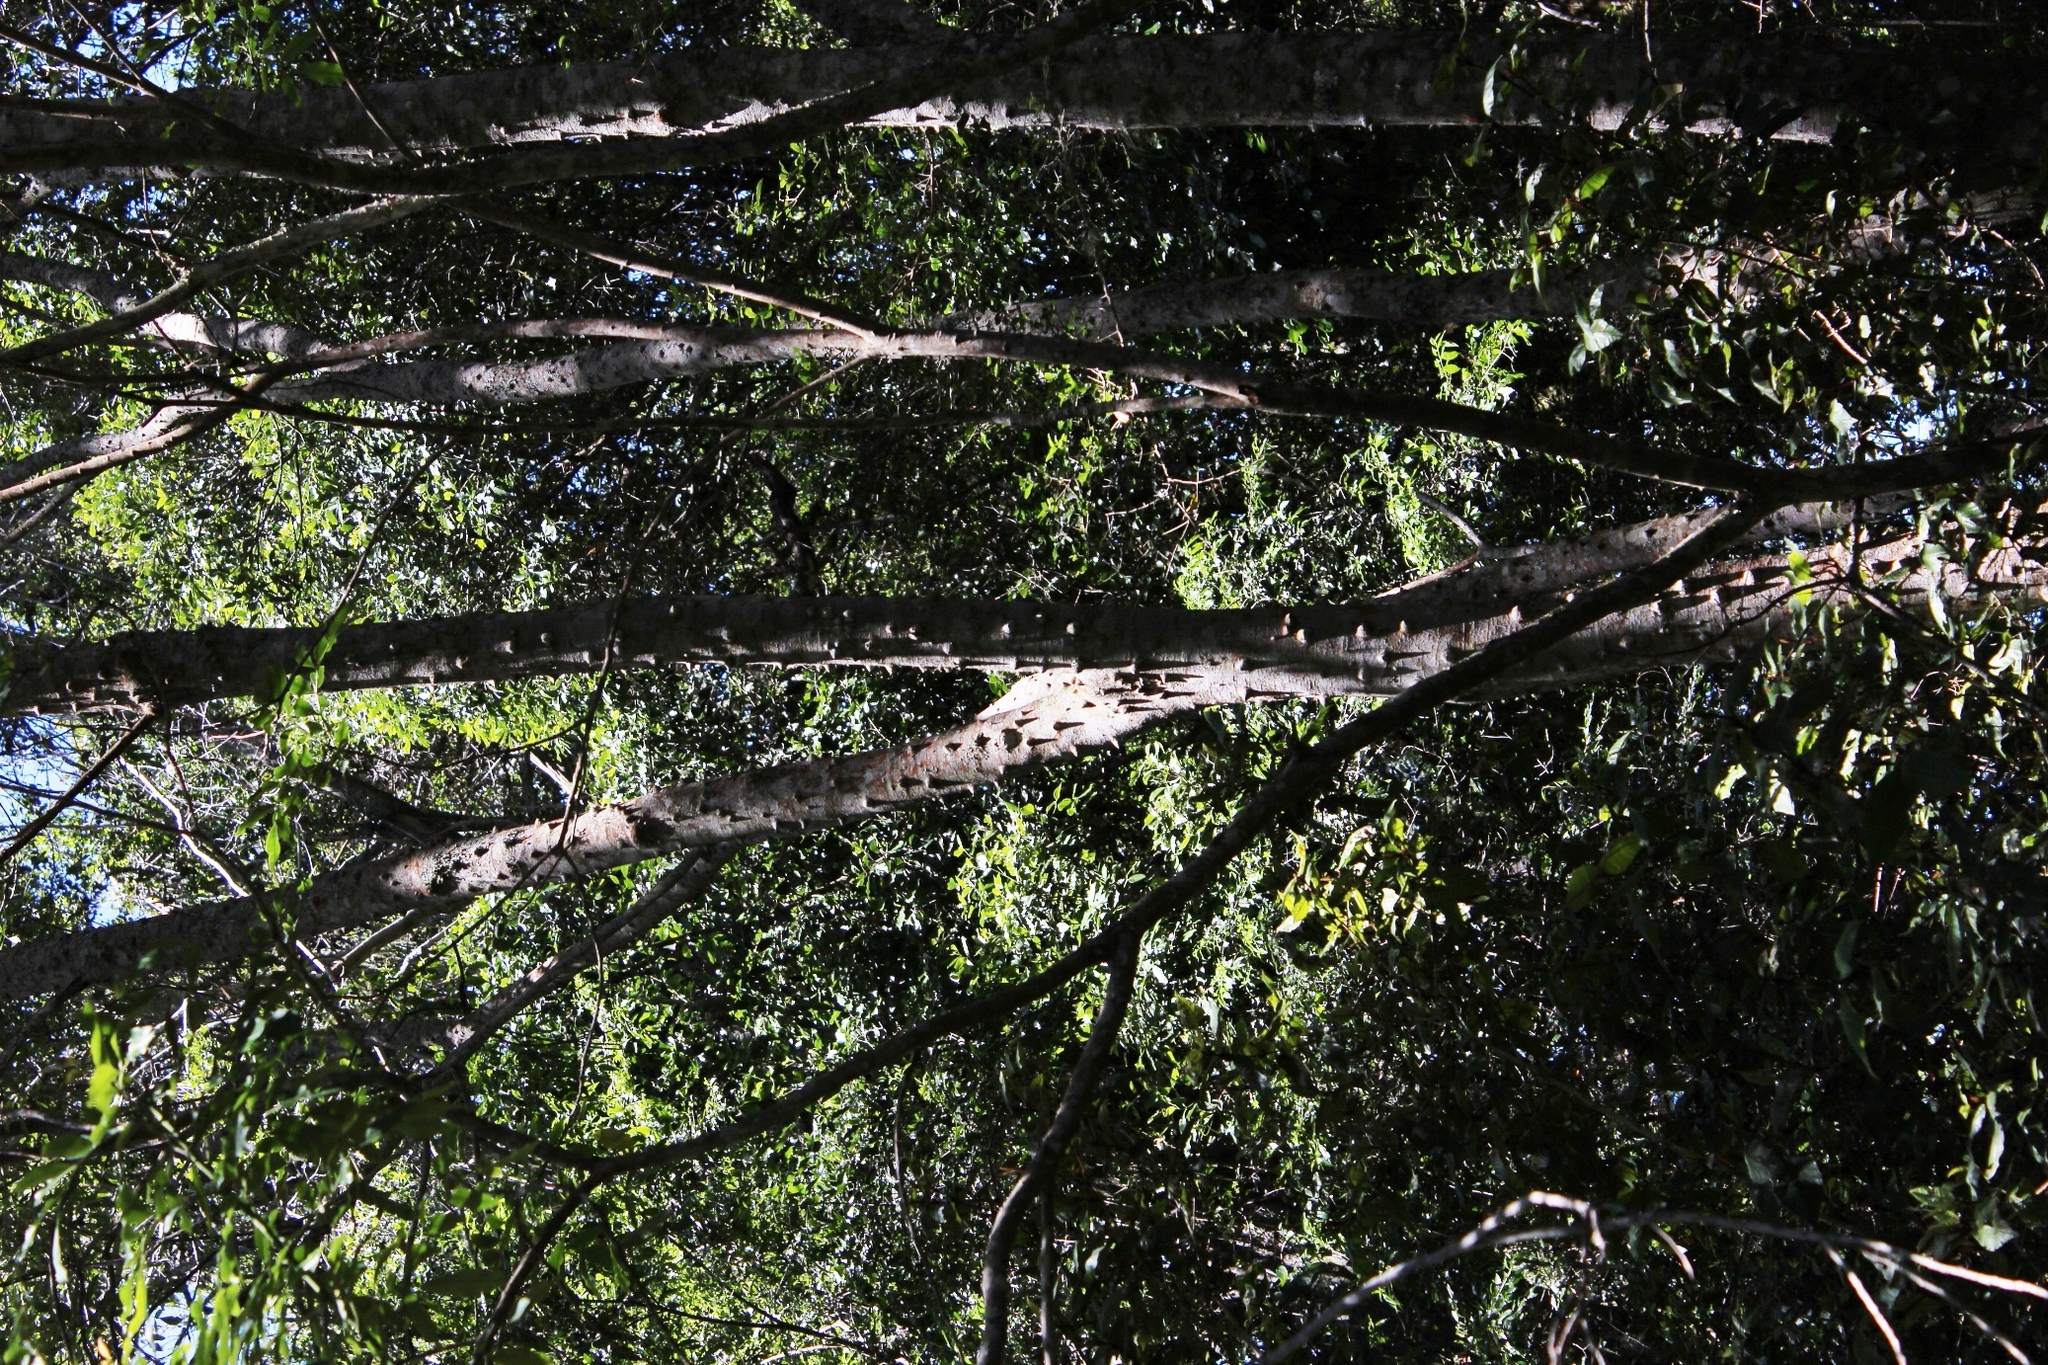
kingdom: Plantae
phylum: Tracheophyta
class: Magnoliopsida
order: Sapindales
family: Rutaceae
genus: Zanthoxylum
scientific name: Zanthoxylum davyi
